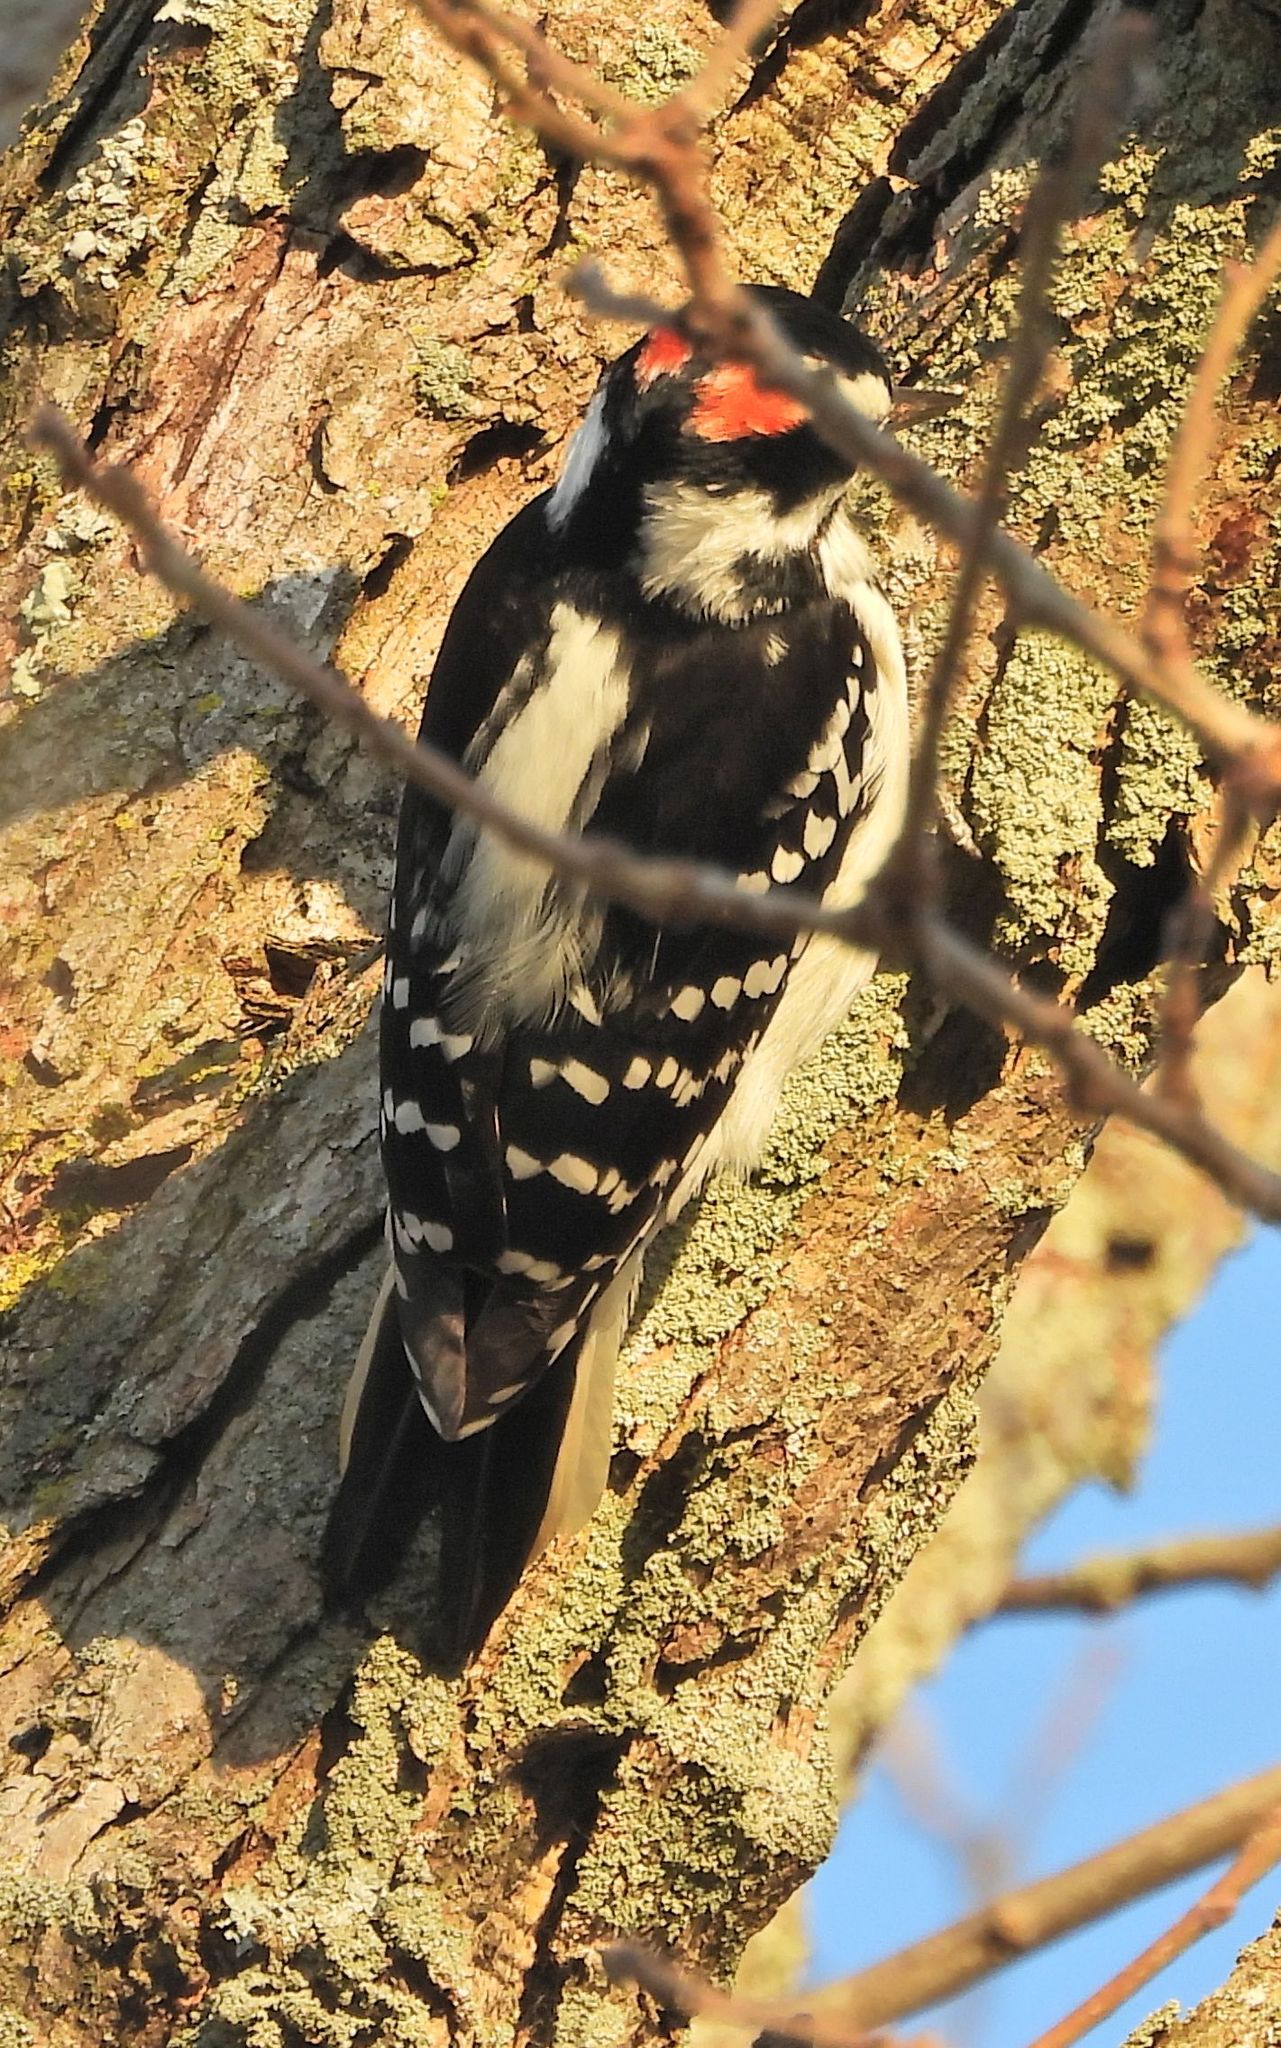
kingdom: Animalia
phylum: Chordata
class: Aves
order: Piciformes
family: Picidae
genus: Leuconotopicus
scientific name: Leuconotopicus villosus
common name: Hairy woodpecker
